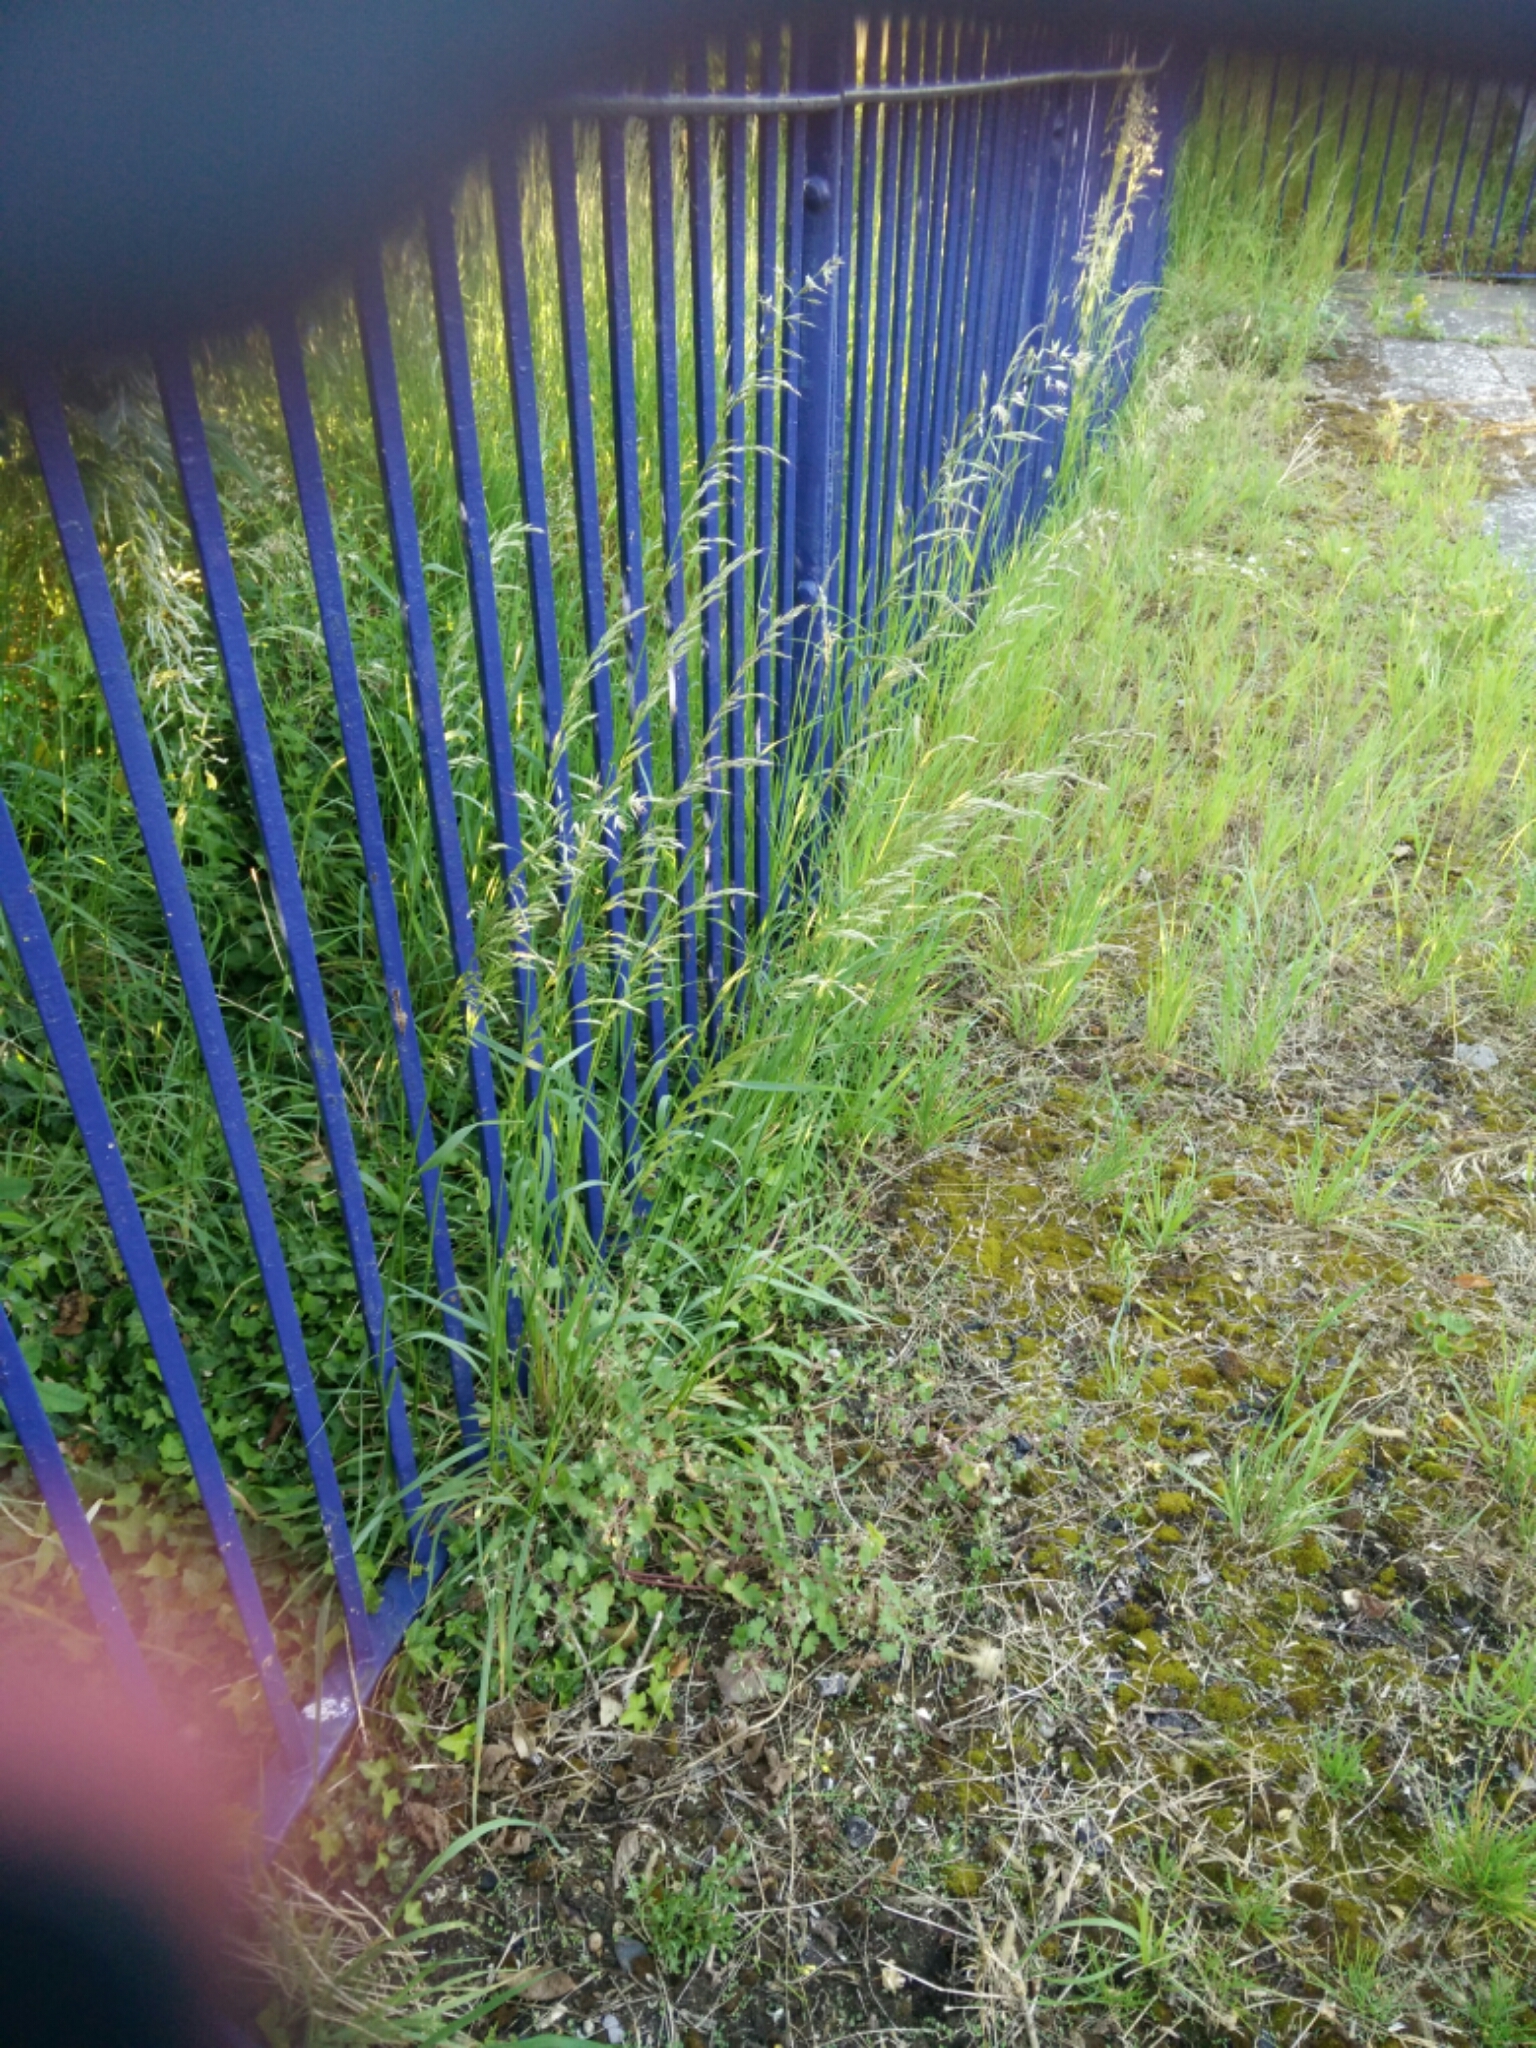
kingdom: Plantae
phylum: Tracheophyta
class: Liliopsida
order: Poales
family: Poaceae
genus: Arrhenatherum
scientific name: Arrhenatherum elatius
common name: Tall oatgrass
